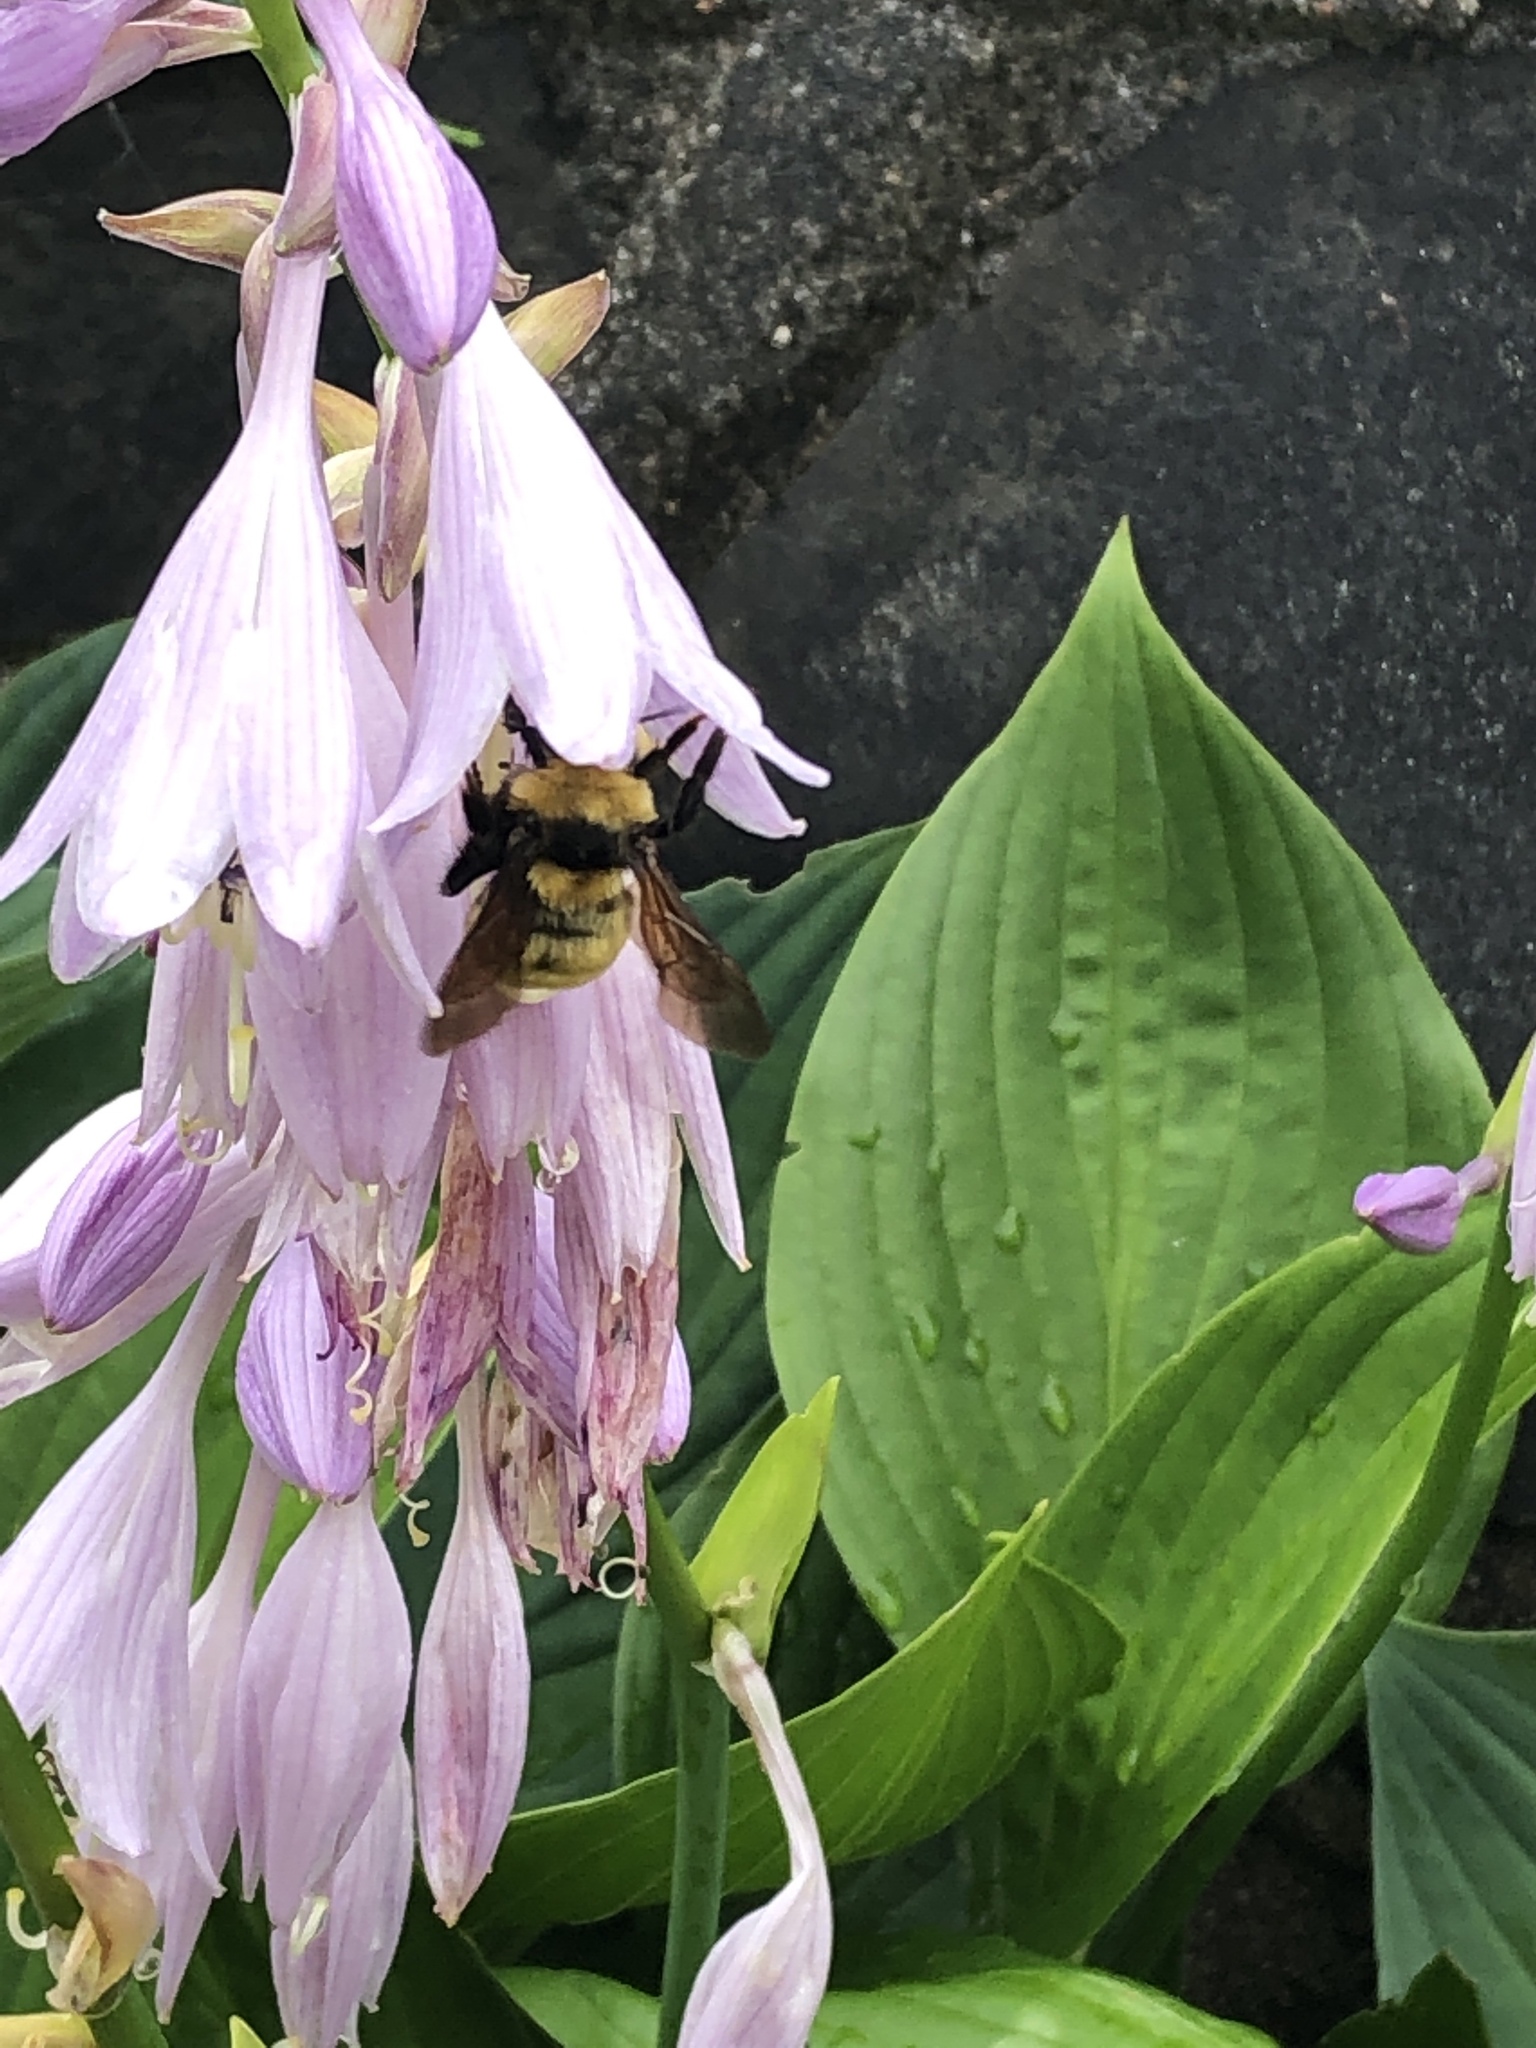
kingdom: Animalia
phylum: Arthropoda
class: Insecta
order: Hymenoptera
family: Apidae
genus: Bombus
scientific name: Bombus borealis
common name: Northern amber bumble bee
